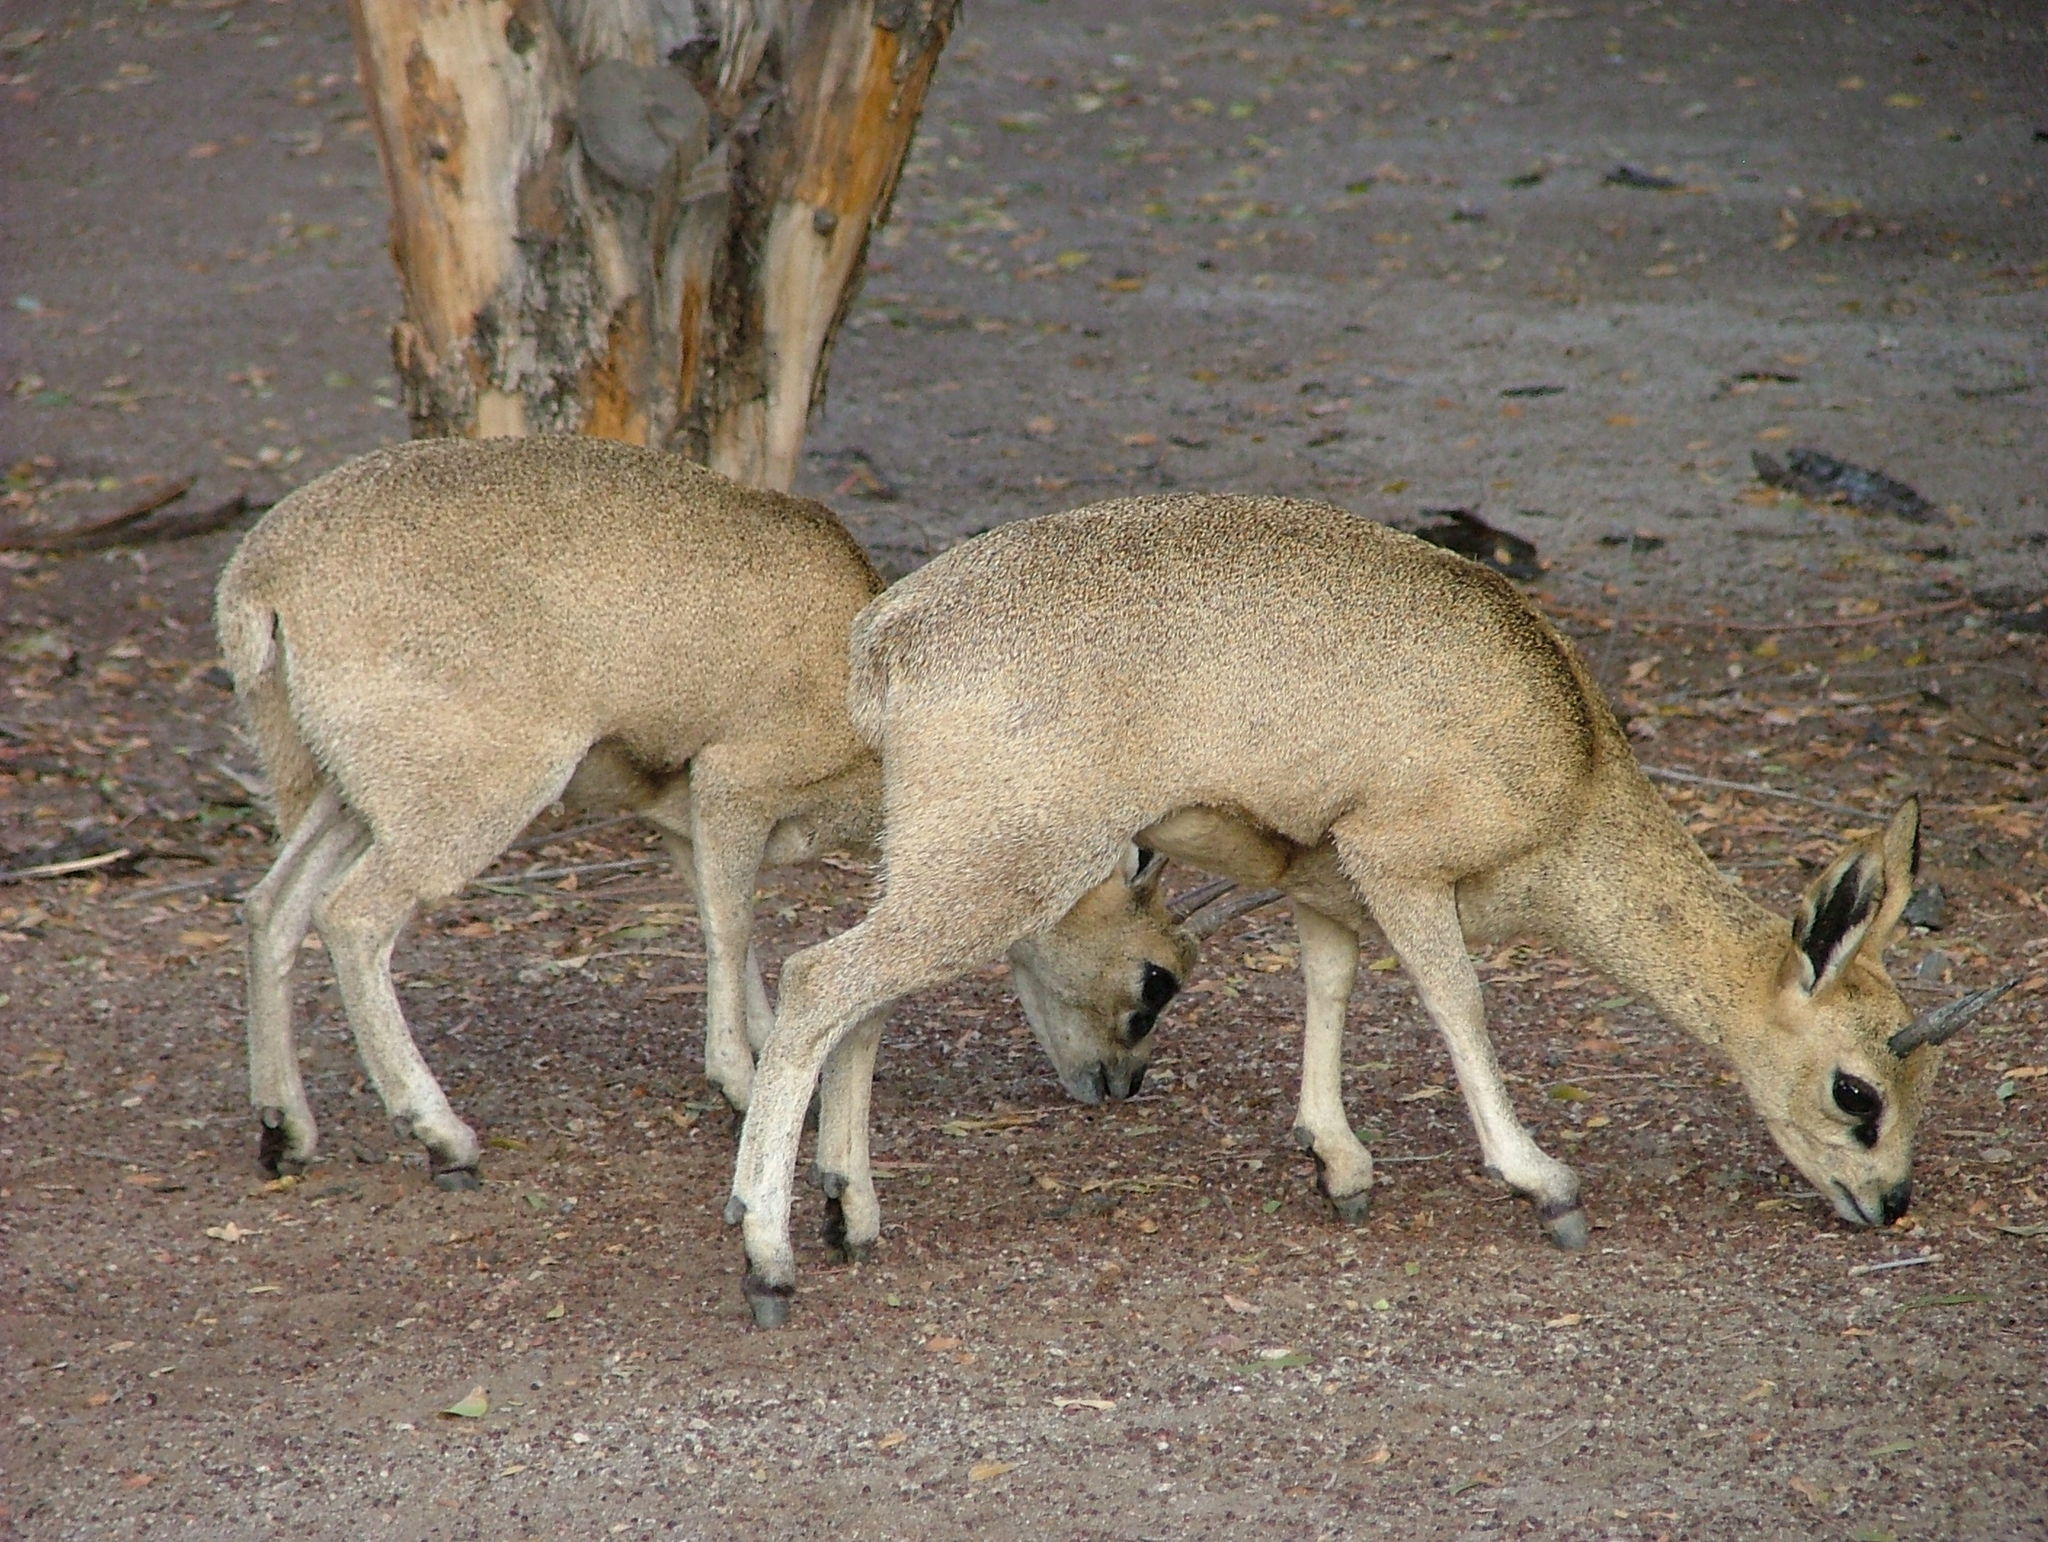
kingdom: Animalia
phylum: Chordata
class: Mammalia
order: Artiodactyla
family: Bovidae
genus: Oreotragus
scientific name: Oreotragus oreotragus
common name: Klipspringer
